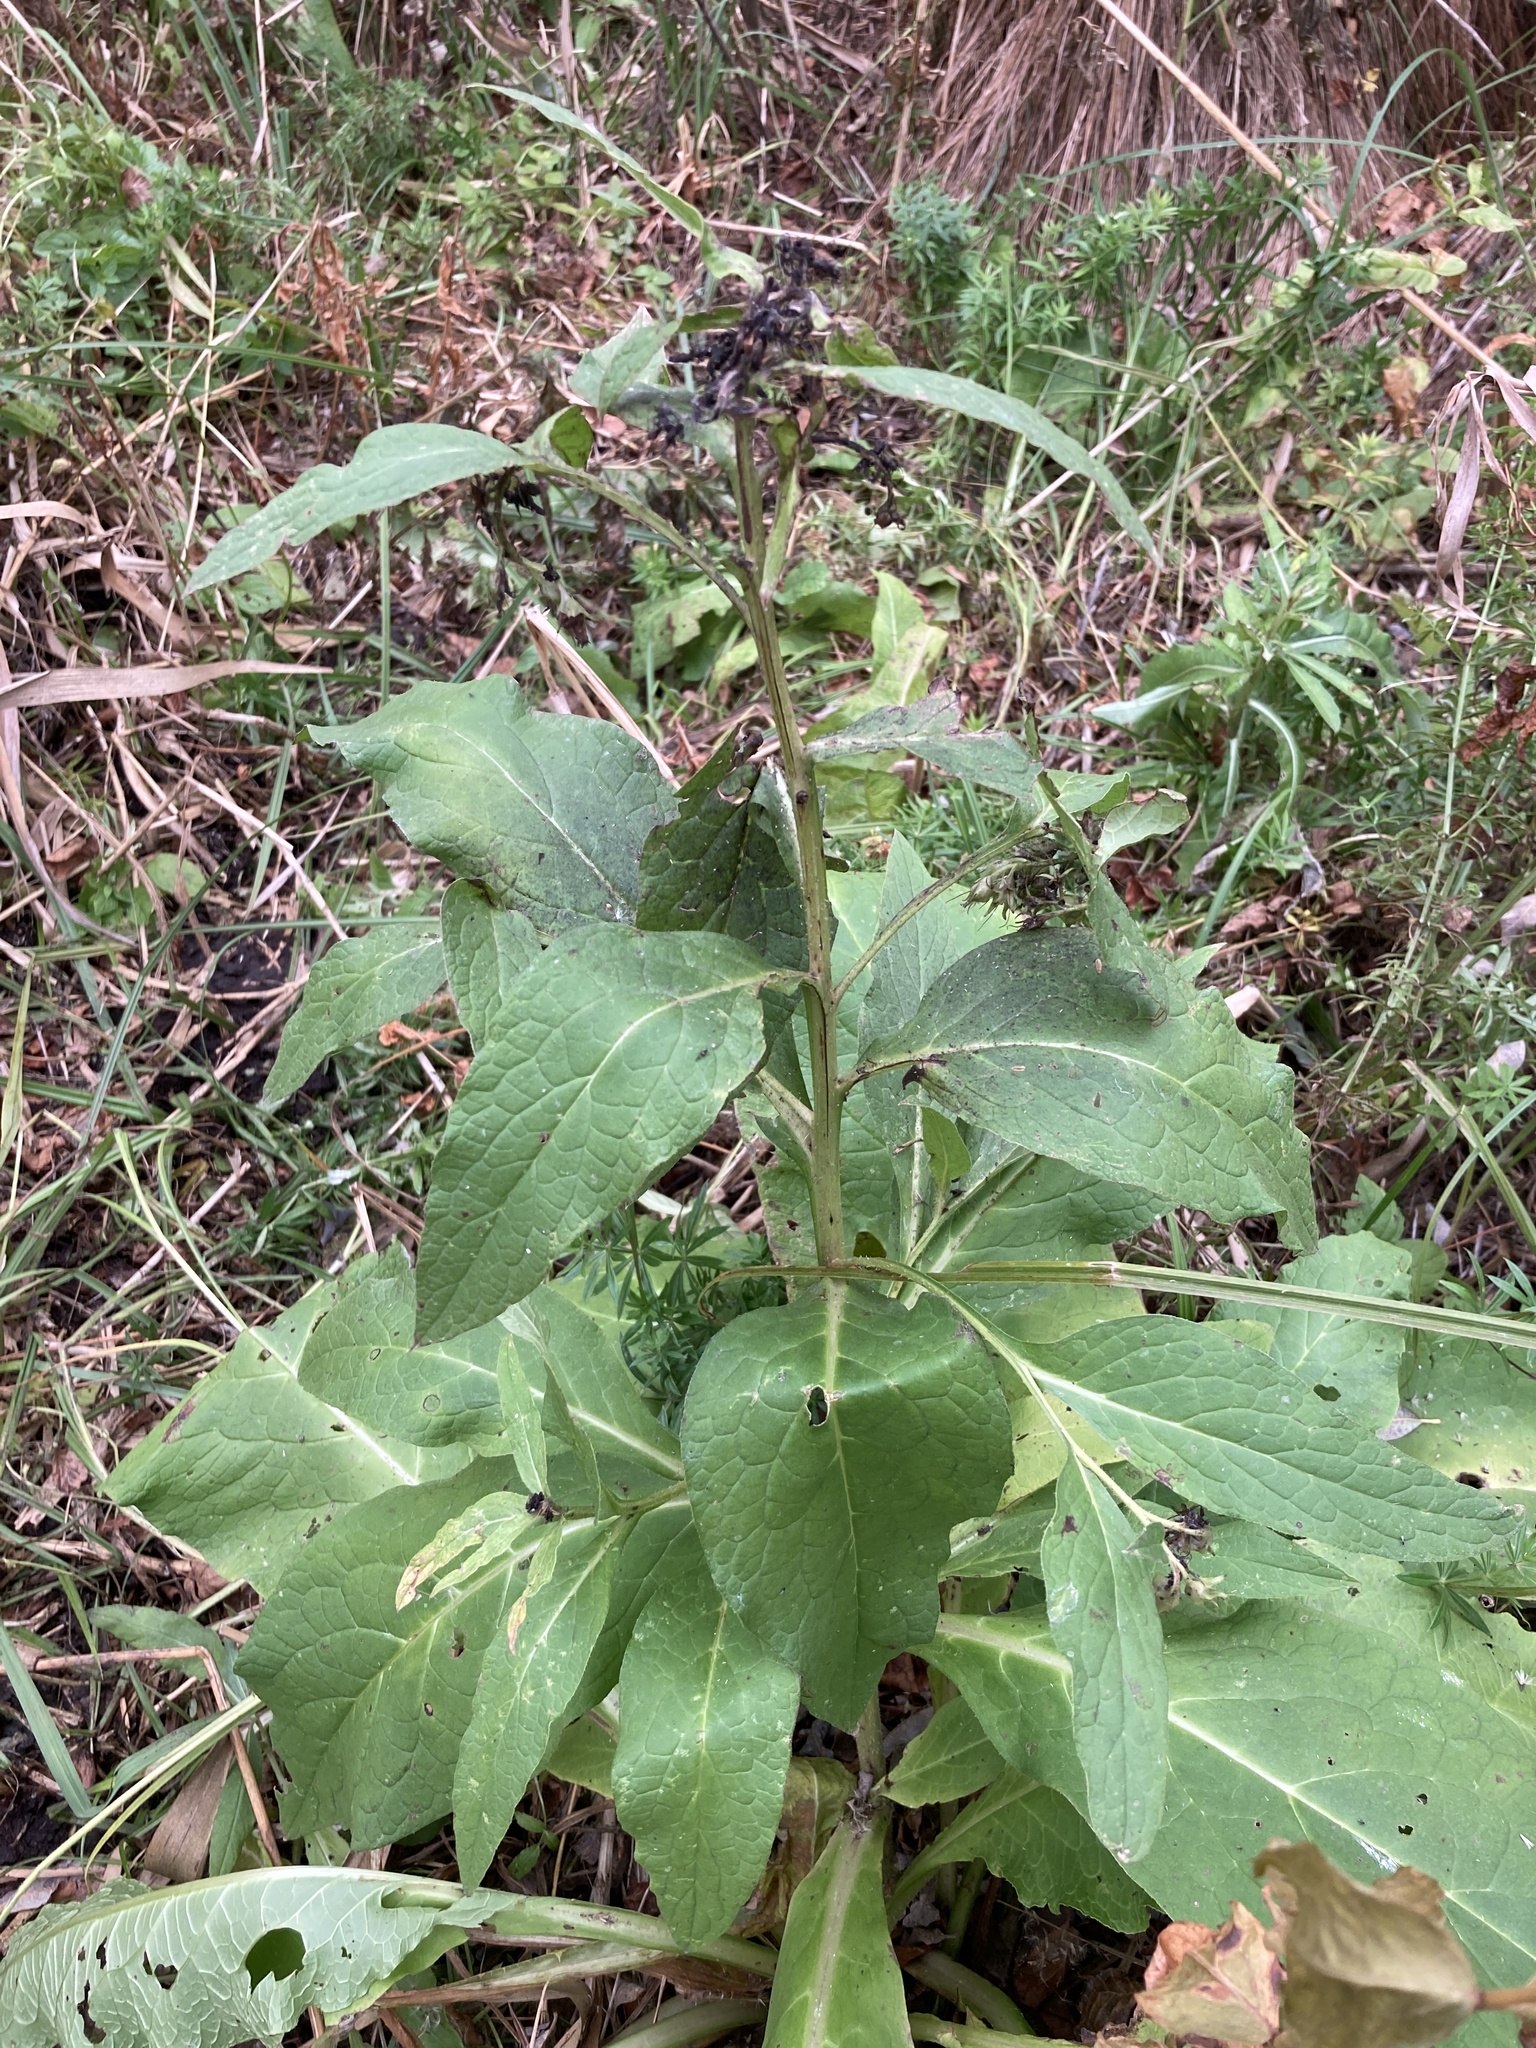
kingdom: Plantae
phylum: Tracheophyta
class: Magnoliopsida
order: Boraginales
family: Boraginaceae
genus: Symphytum
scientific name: Symphytum officinale
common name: Common comfrey
